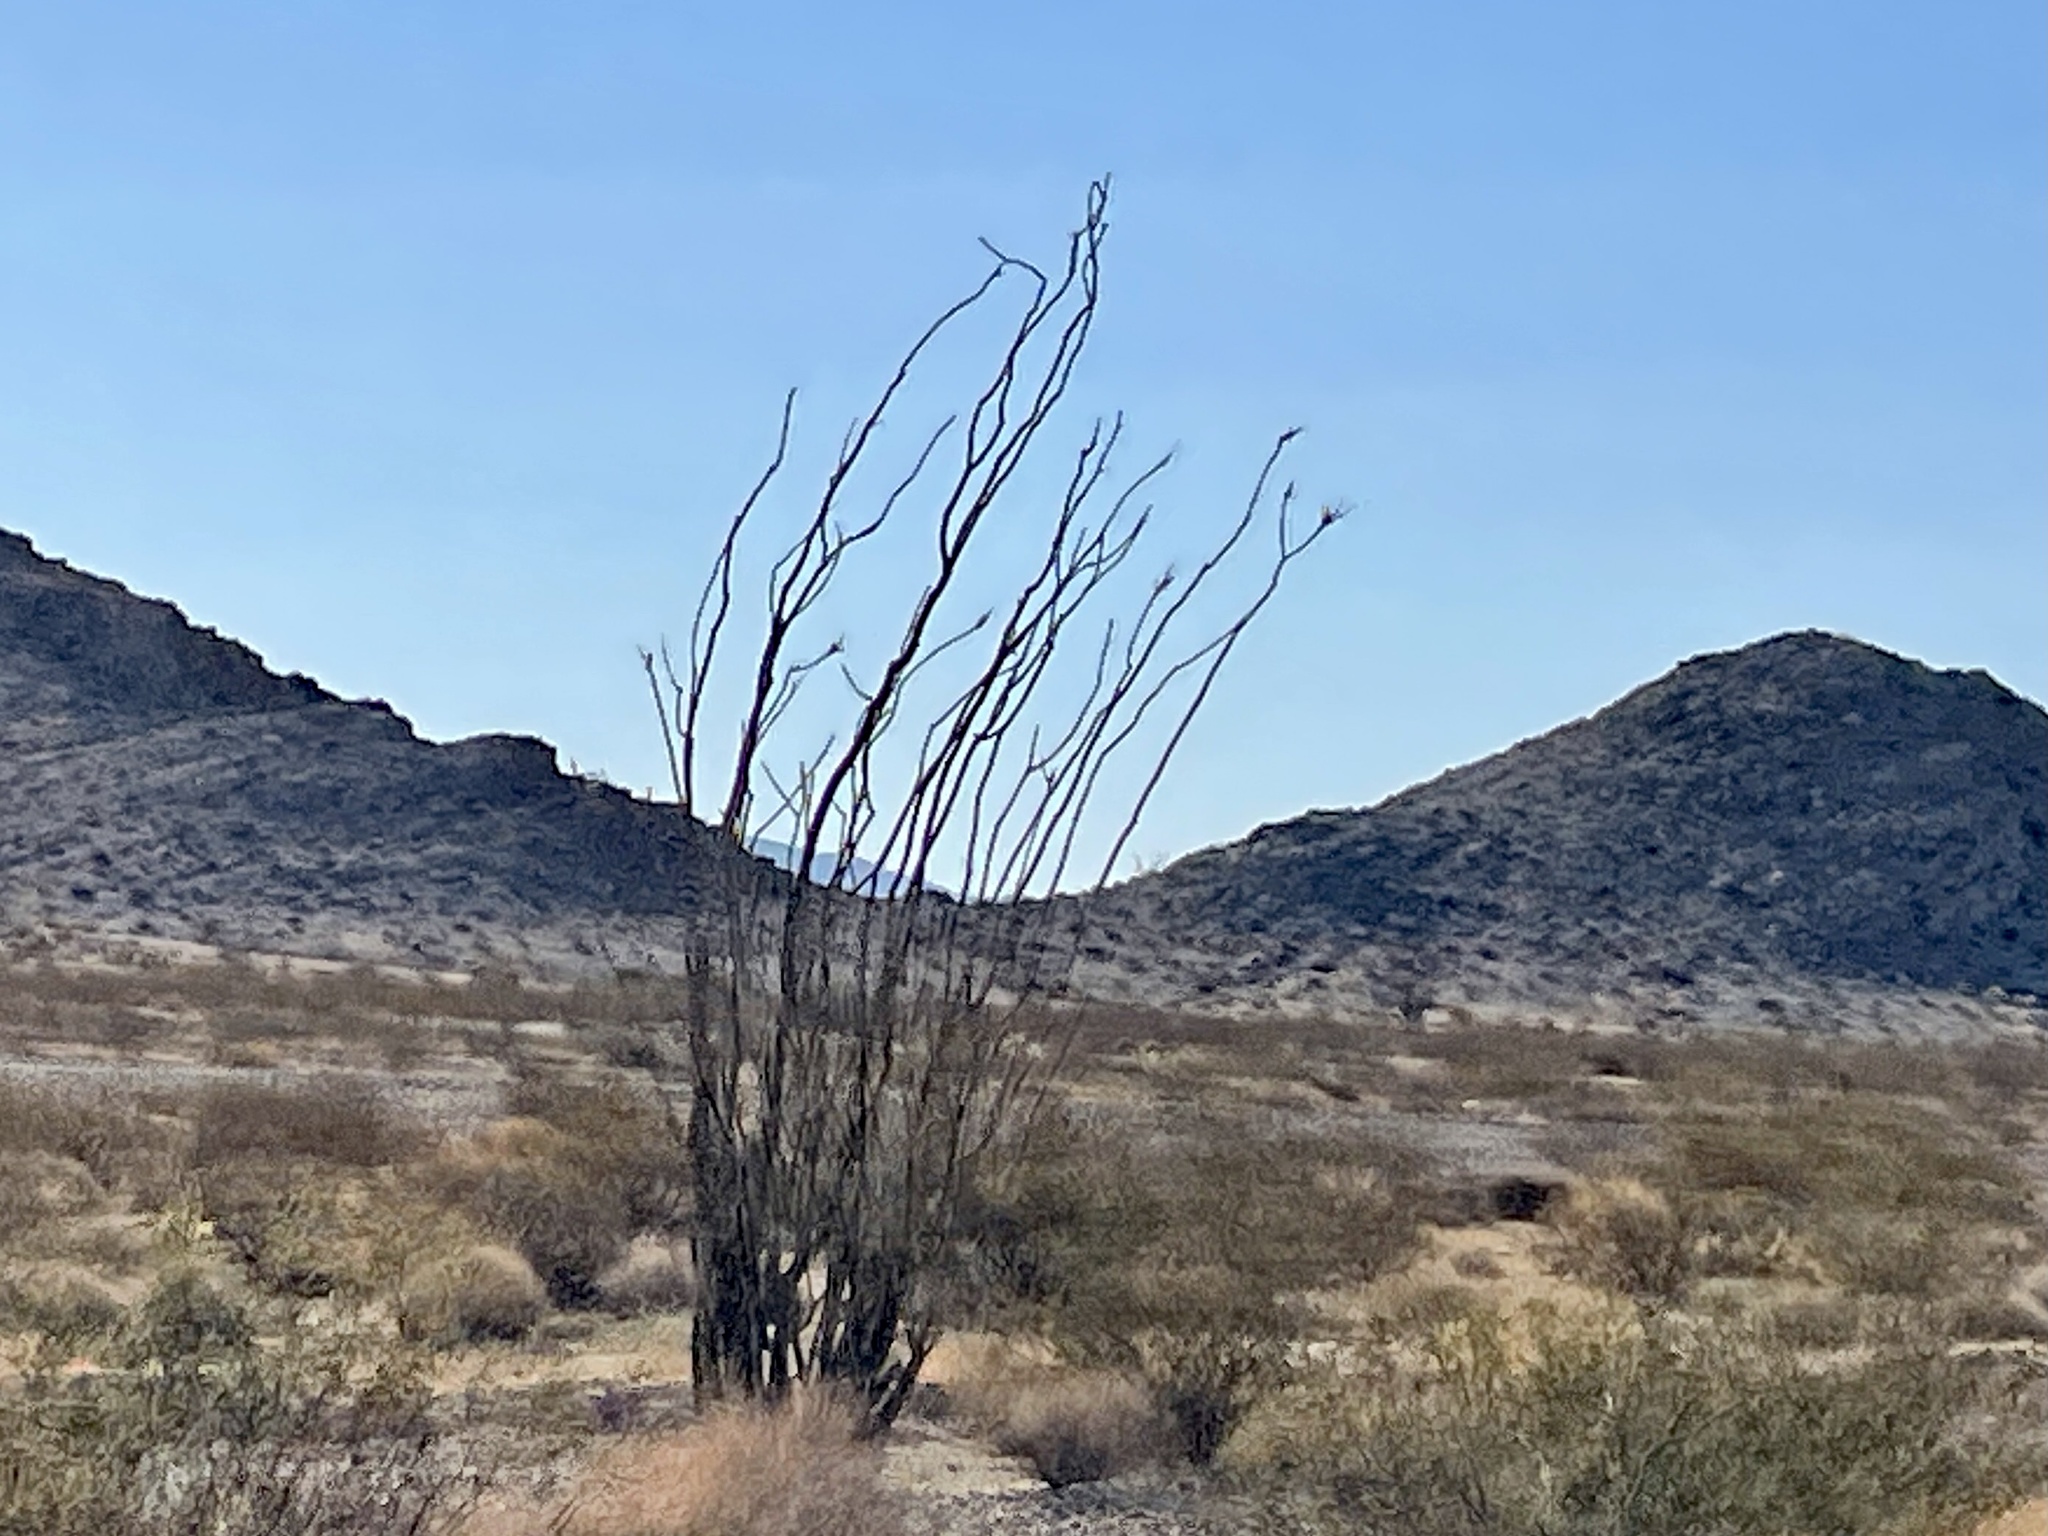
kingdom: Plantae
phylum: Tracheophyta
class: Magnoliopsida
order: Ericales
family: Fouquieriaceae
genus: Fouquieria
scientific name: Fouquieria splendens
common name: Vine-cactus
